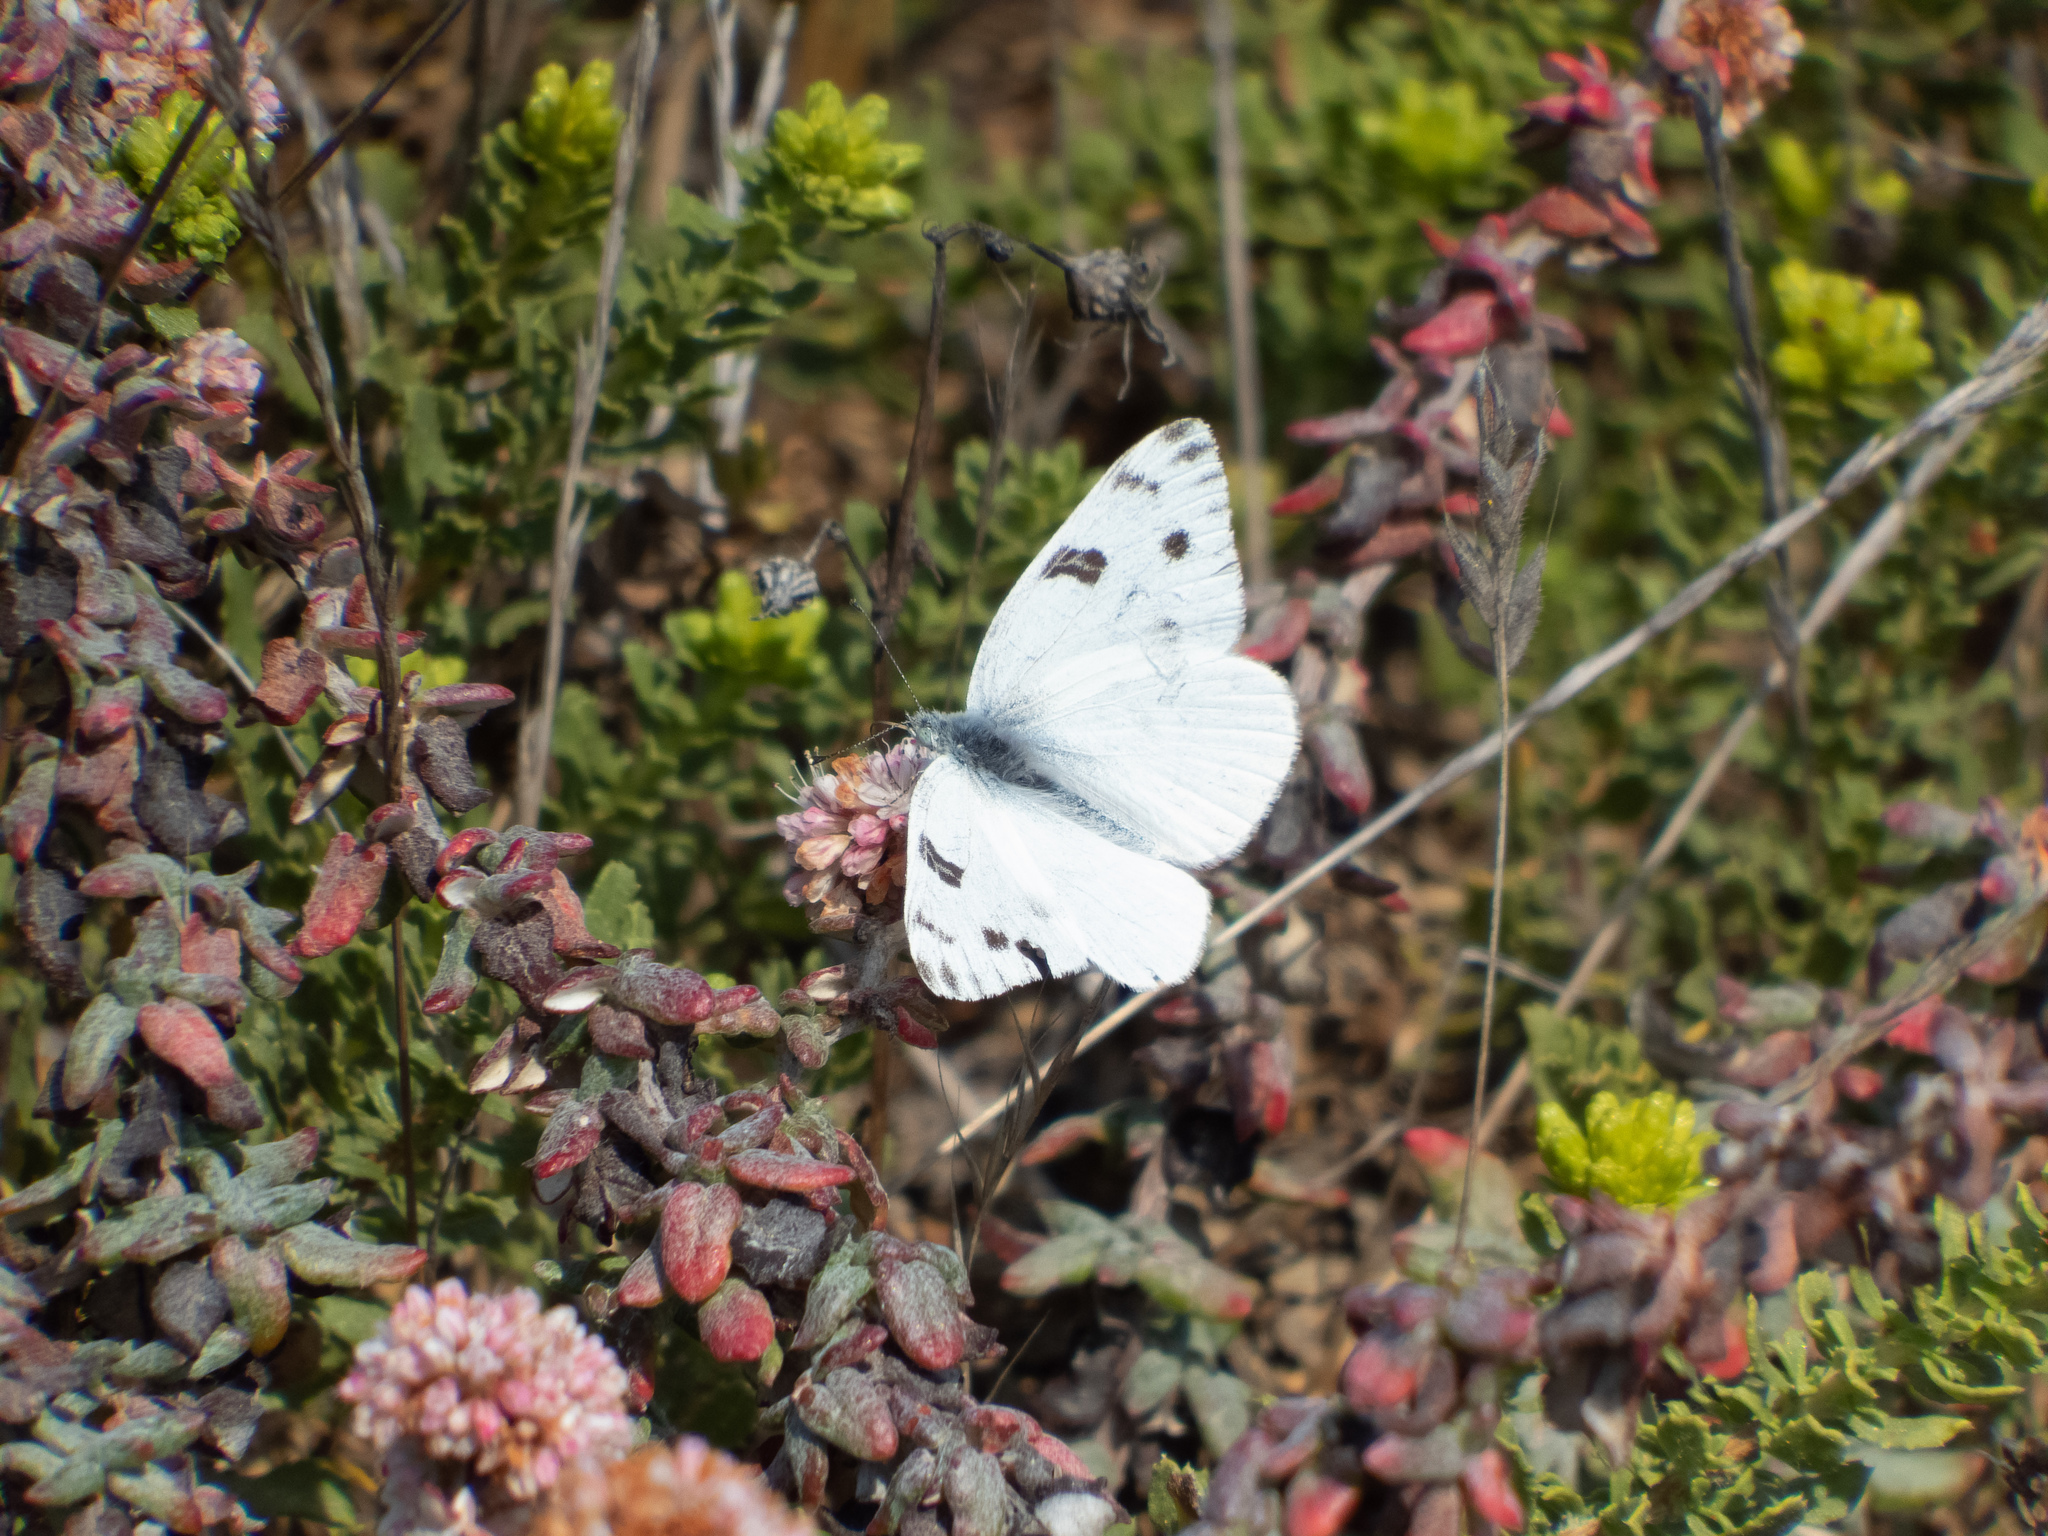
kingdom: Animalia
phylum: Arthropoda
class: Insecta
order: Lepidoptera
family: Pieridae
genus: Pontia
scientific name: Pontia protodice
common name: Checkered white
